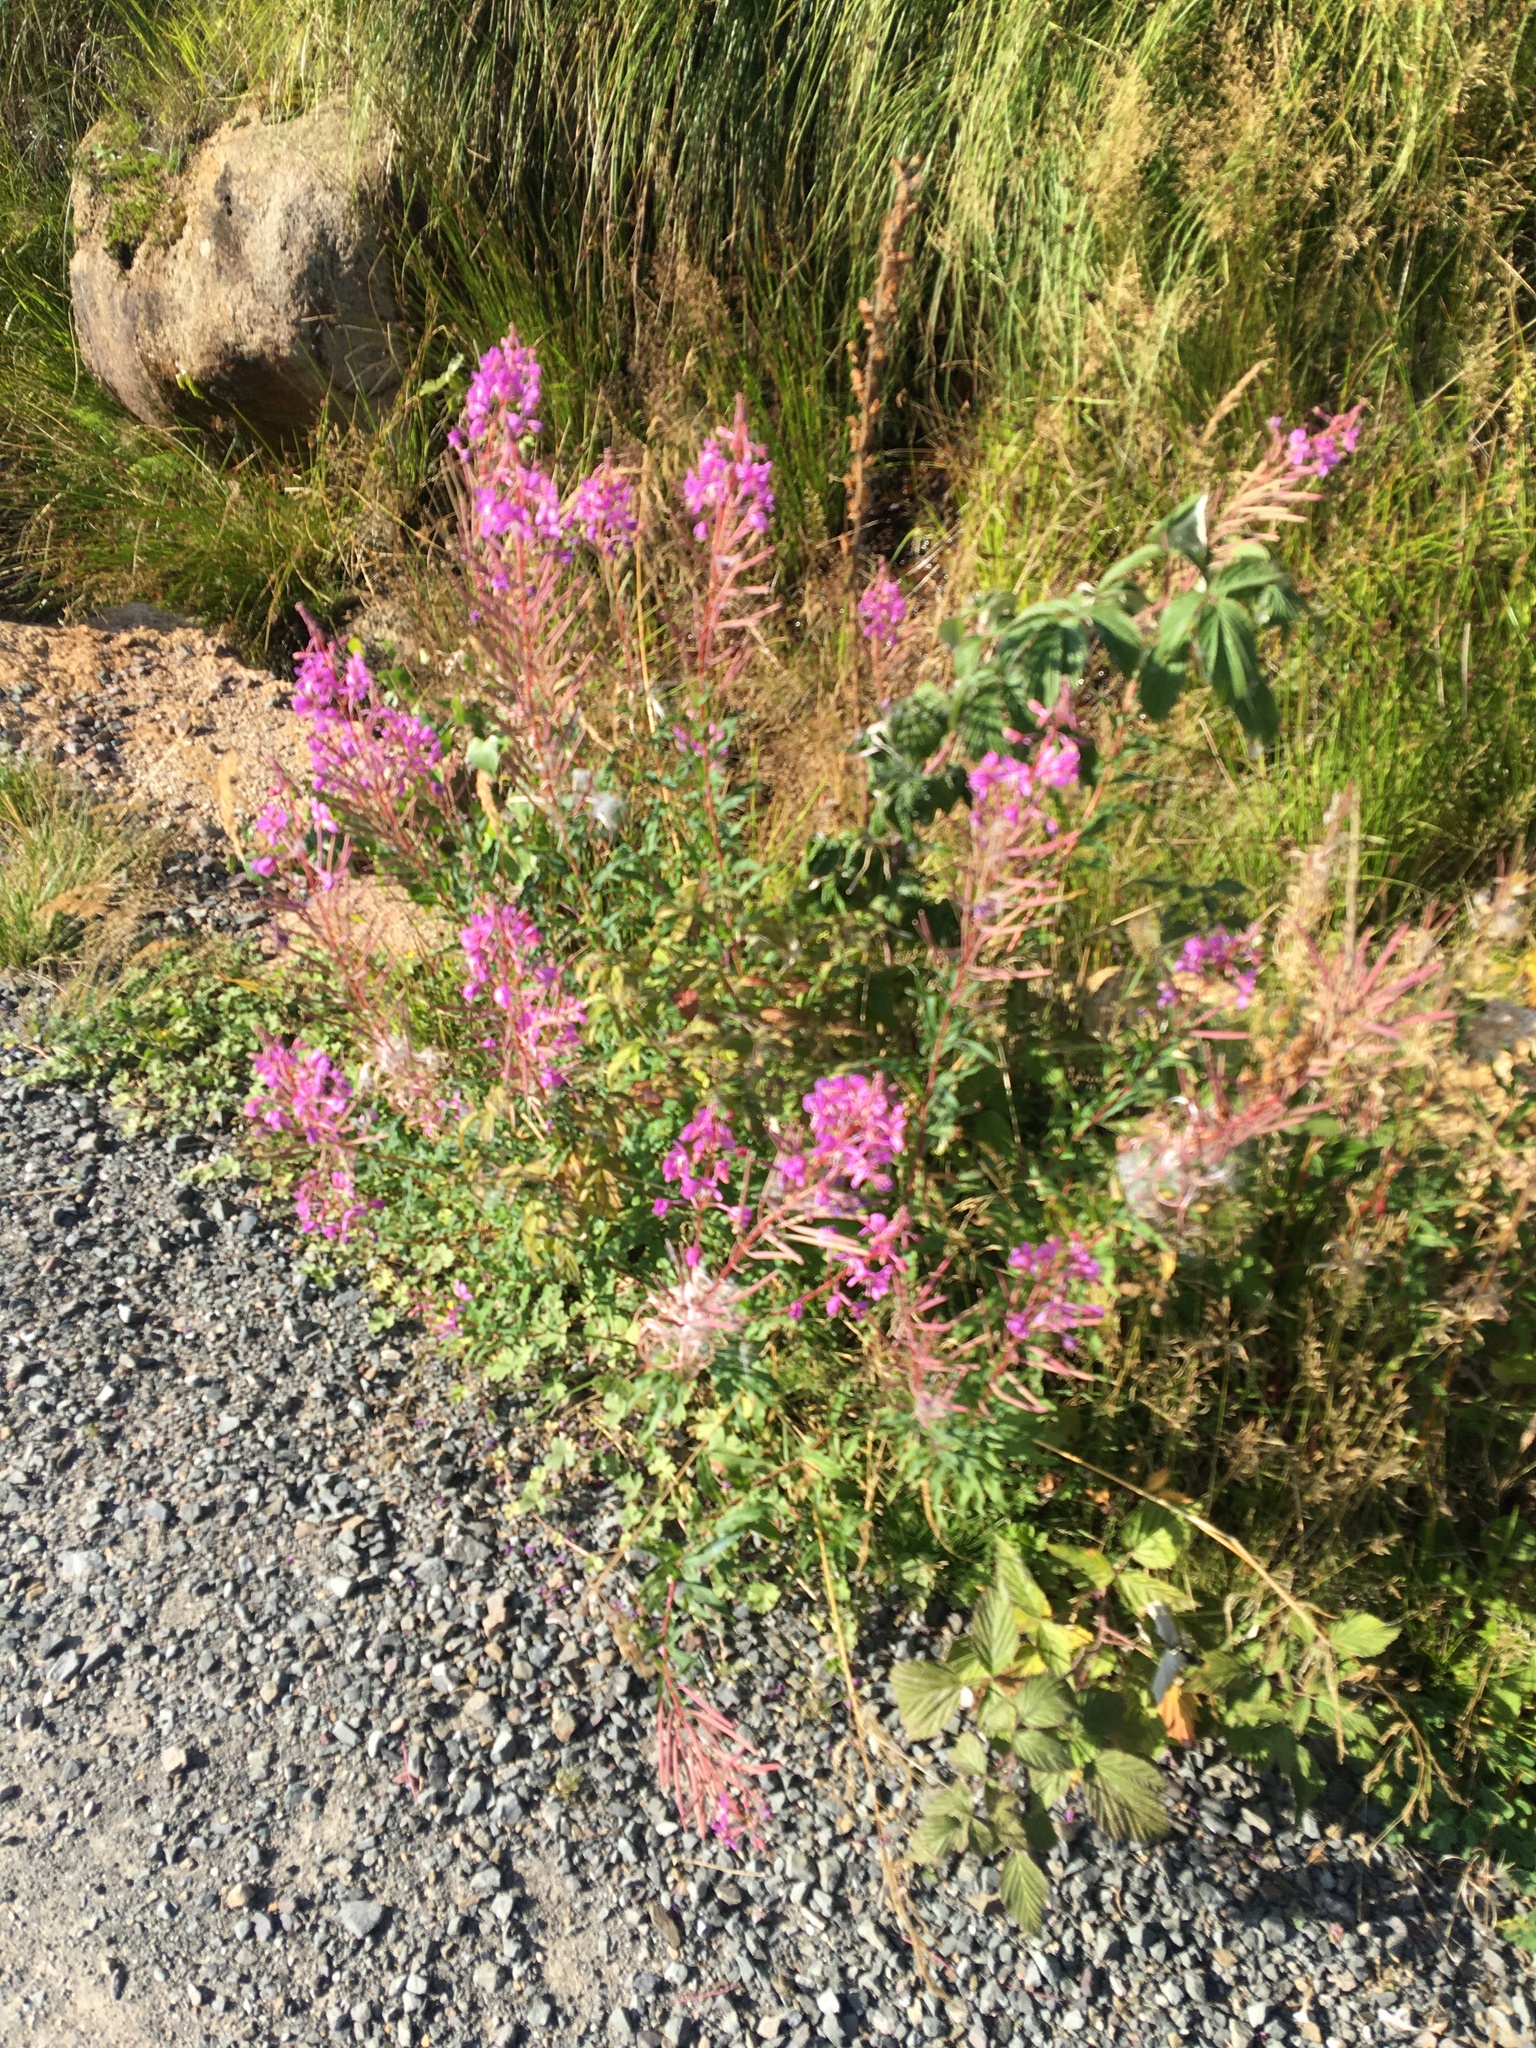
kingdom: Plantae
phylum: Tracheophyta
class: Magnoliopsida
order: Myrtales
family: Onagraceae
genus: Chamaenerion
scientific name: Chamaenerion angustifolium
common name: Fireweed
